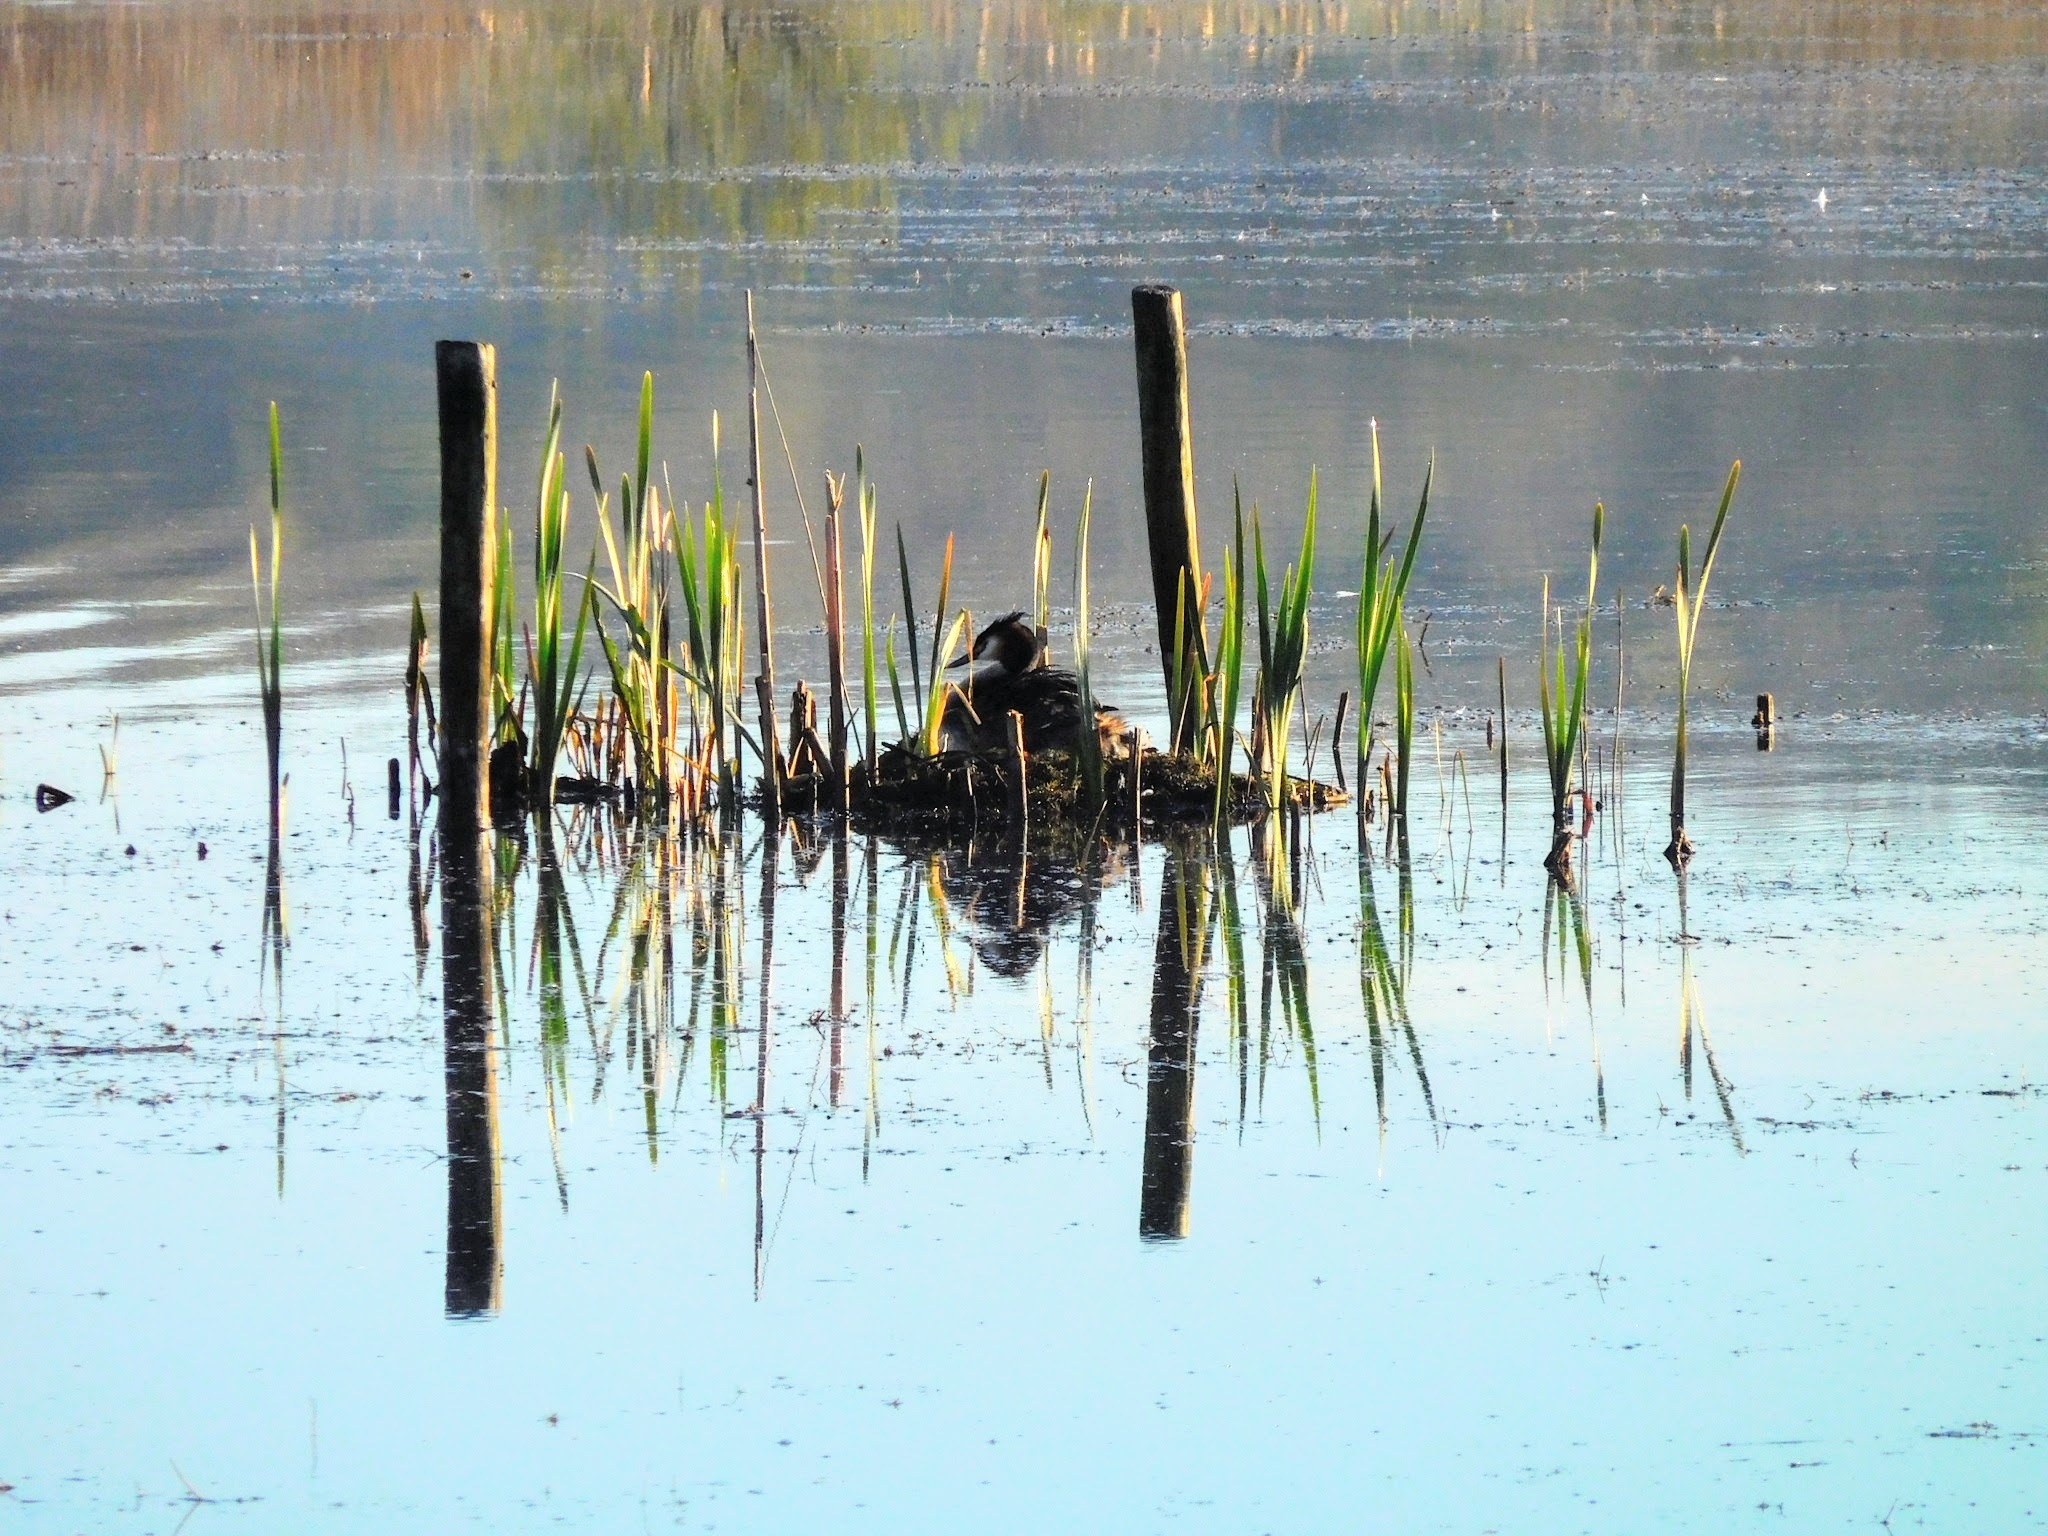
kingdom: Animalia
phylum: Chordata
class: Aves
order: Podicipediformes
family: Podicipedidae
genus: Podiceps
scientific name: Podiceps cristatus
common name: Great crested grebe
